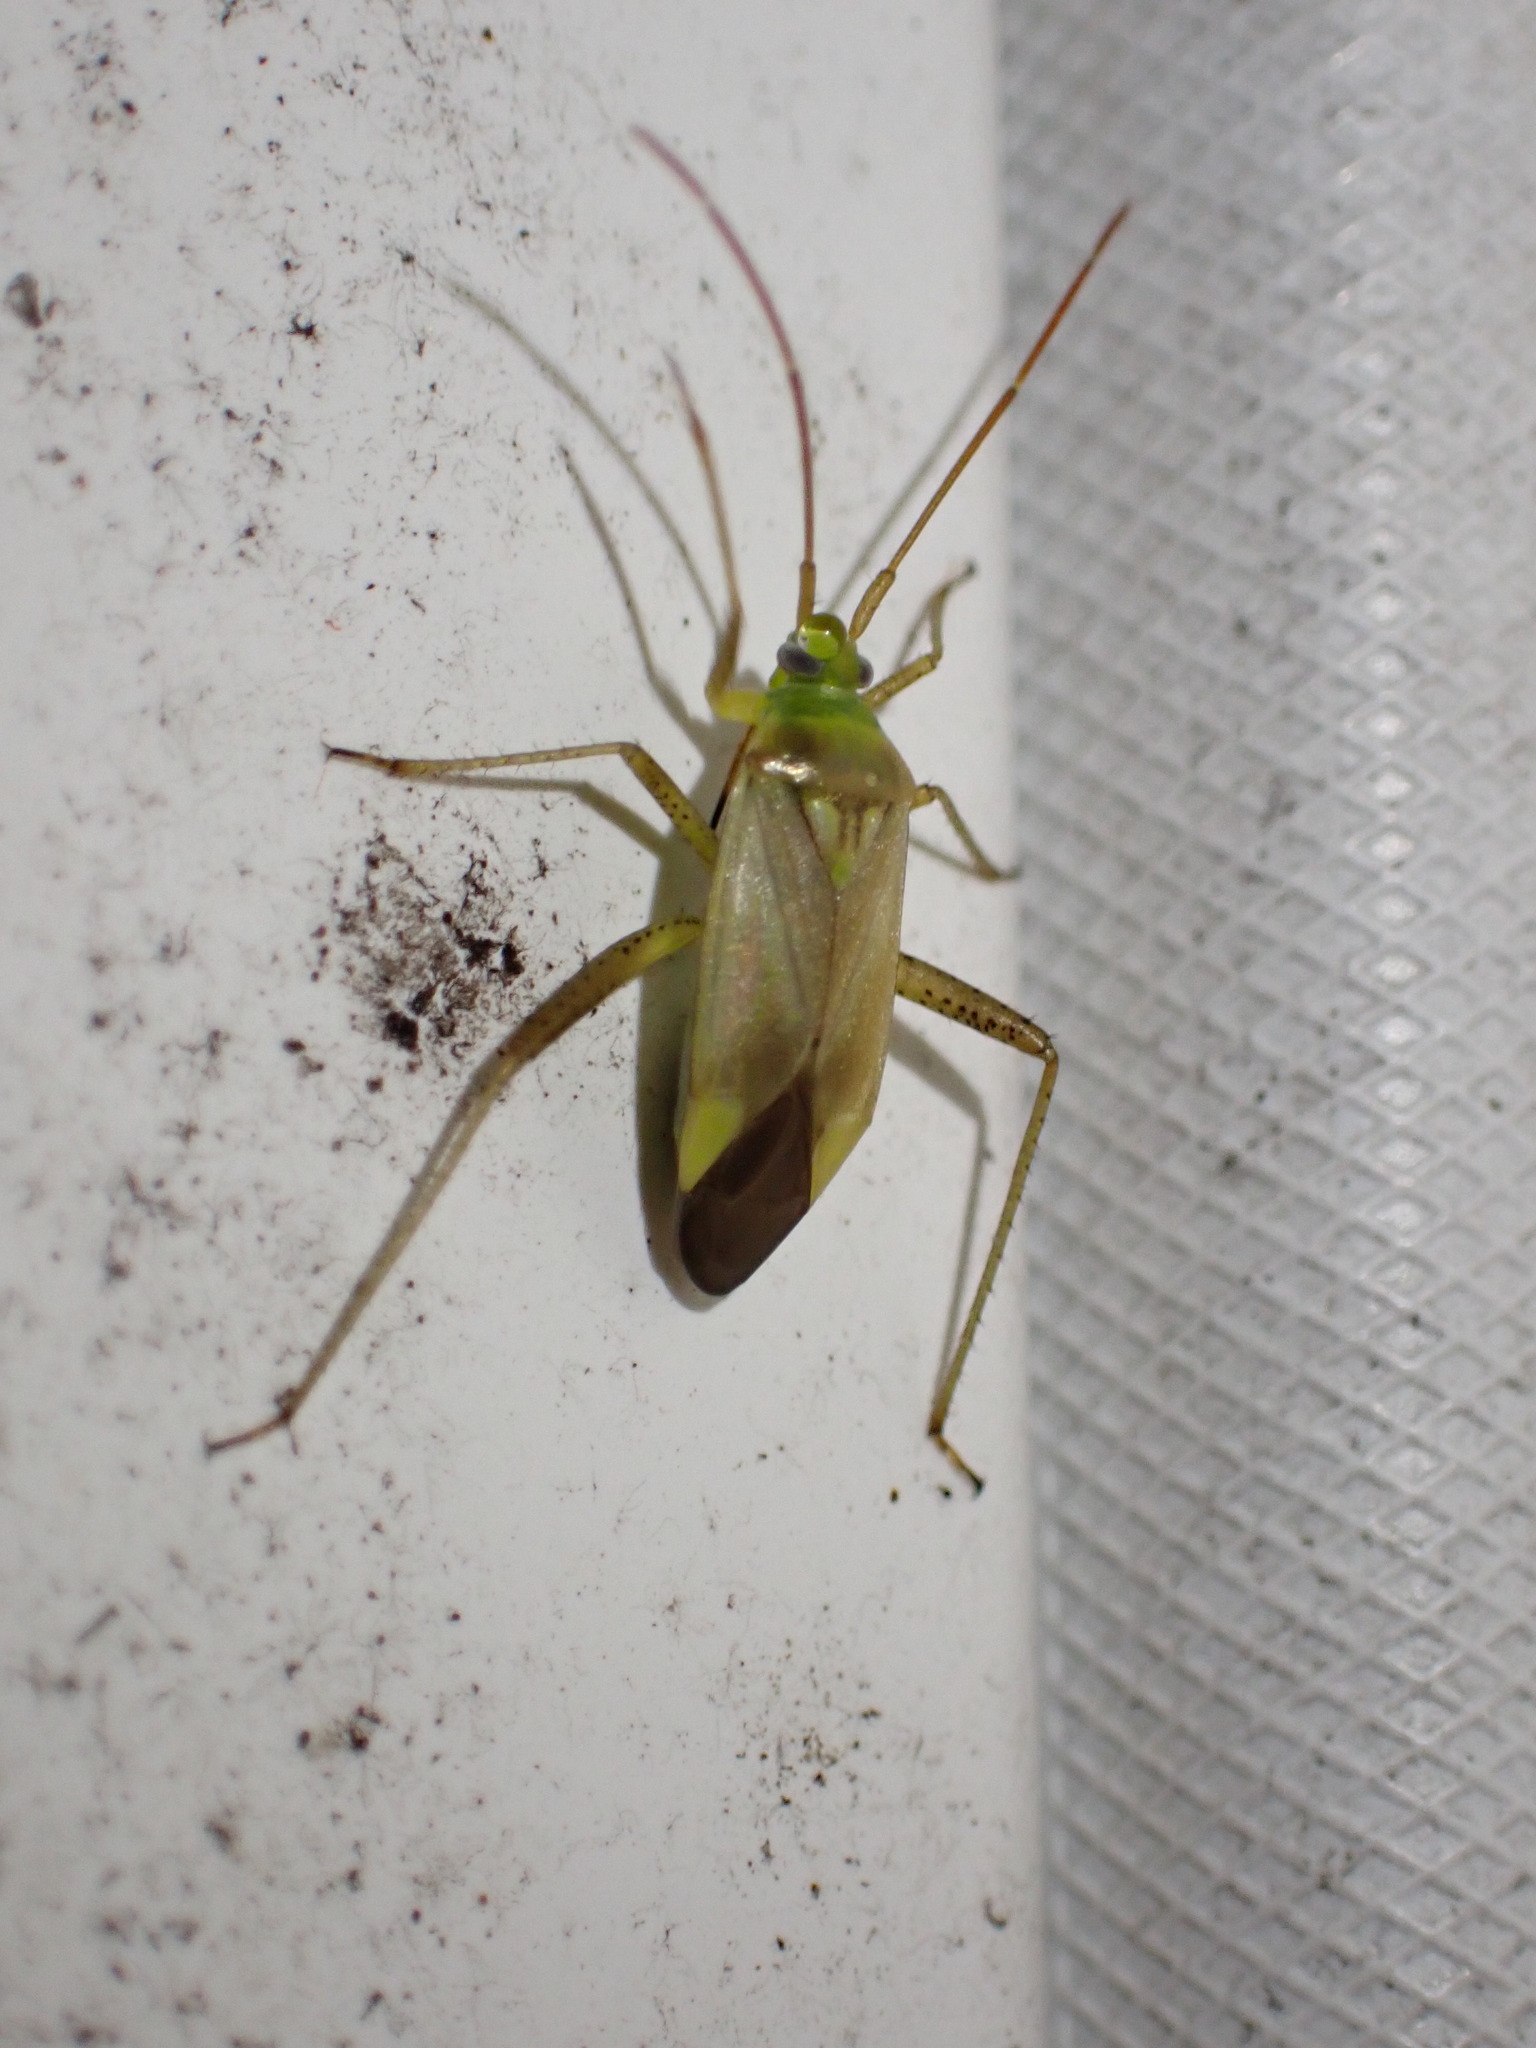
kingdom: Animalia
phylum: Arthropoda
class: Insecta
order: Hemiptera
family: Miridae
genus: Adelphocoris
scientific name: Adelphocoris lineolatus
